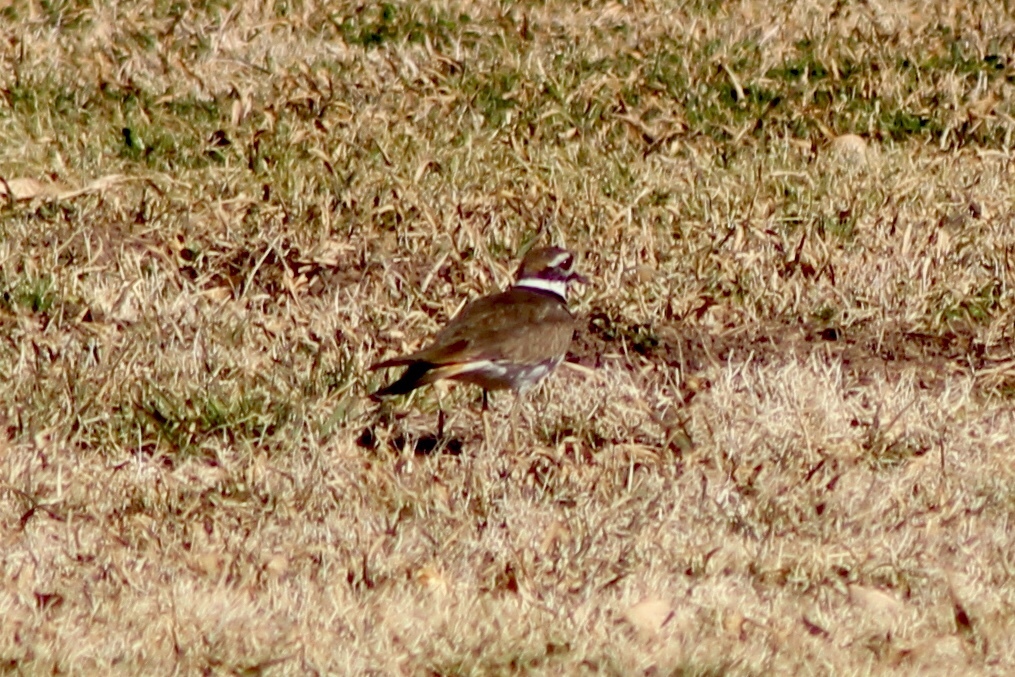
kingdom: Animalia
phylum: Chordata
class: Aves
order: Charadriiformes
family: Charadriidae
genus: Charadrius
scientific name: Charadrius vociferus
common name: Killdeer
